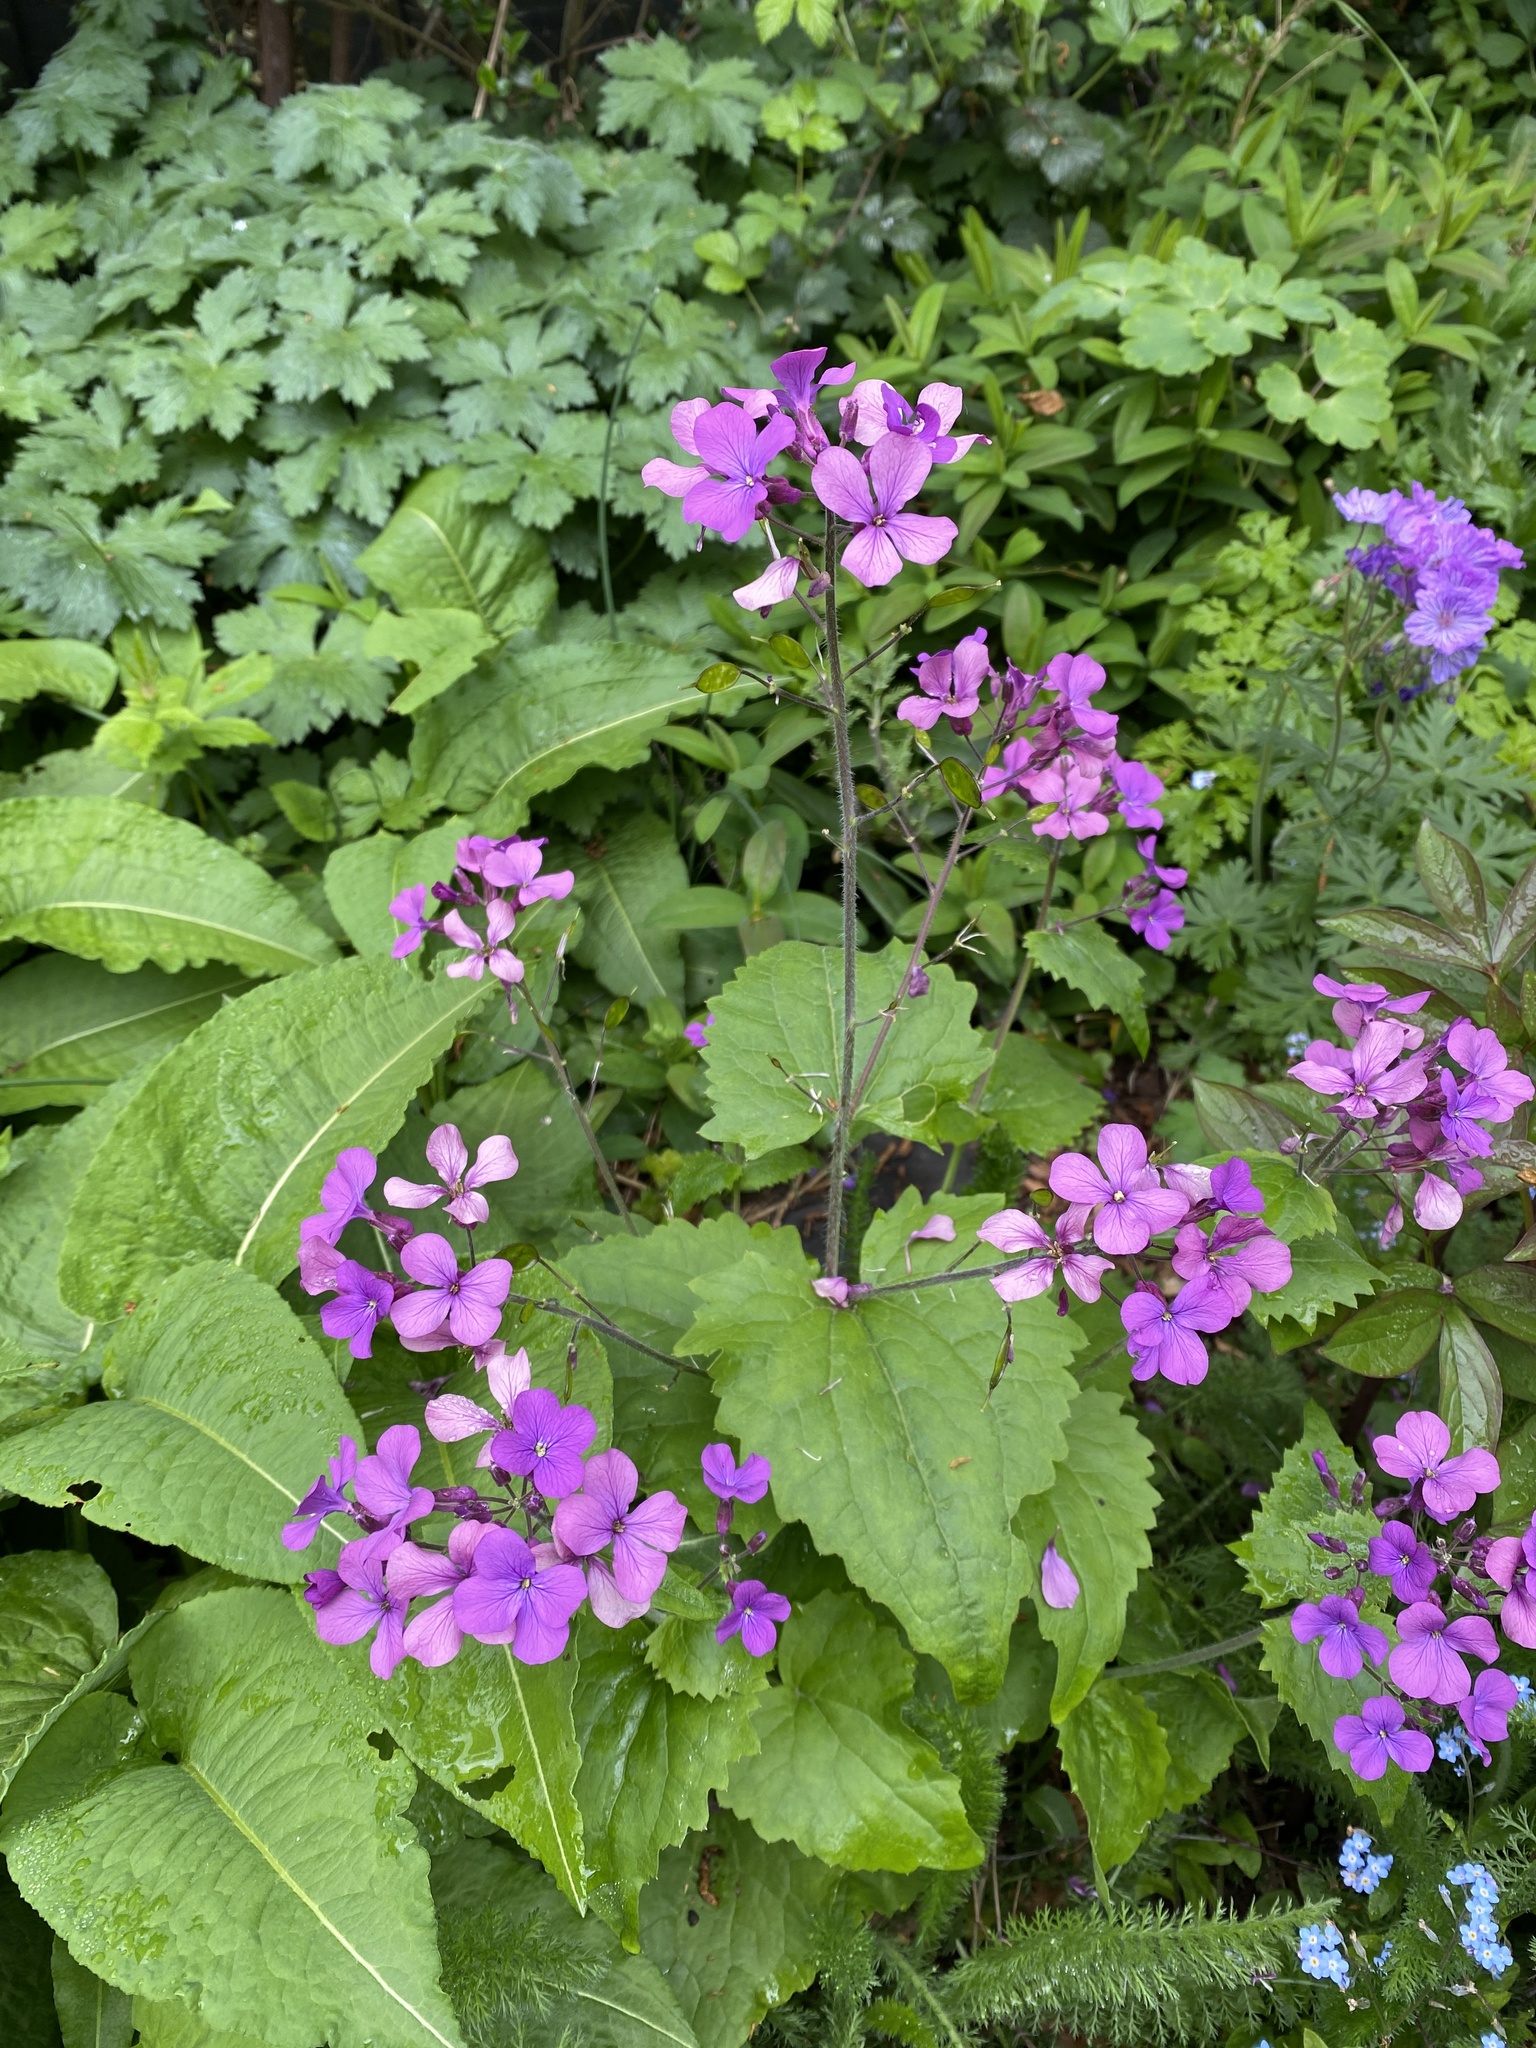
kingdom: Plantae
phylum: Tracheophyta
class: Magnoliopsida
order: Brassicales
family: Brassicaceae
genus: Lunaria
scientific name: Lunaria annua
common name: Honesty
